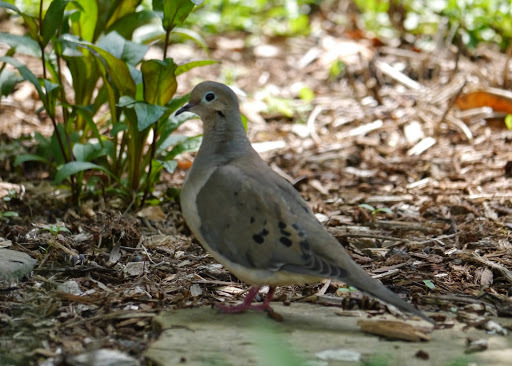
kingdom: Animalia
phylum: Chordata
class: Aves
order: Columbiformes
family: Columbidae
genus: Zenaida
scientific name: Zenaida macroura
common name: Mourning dove
